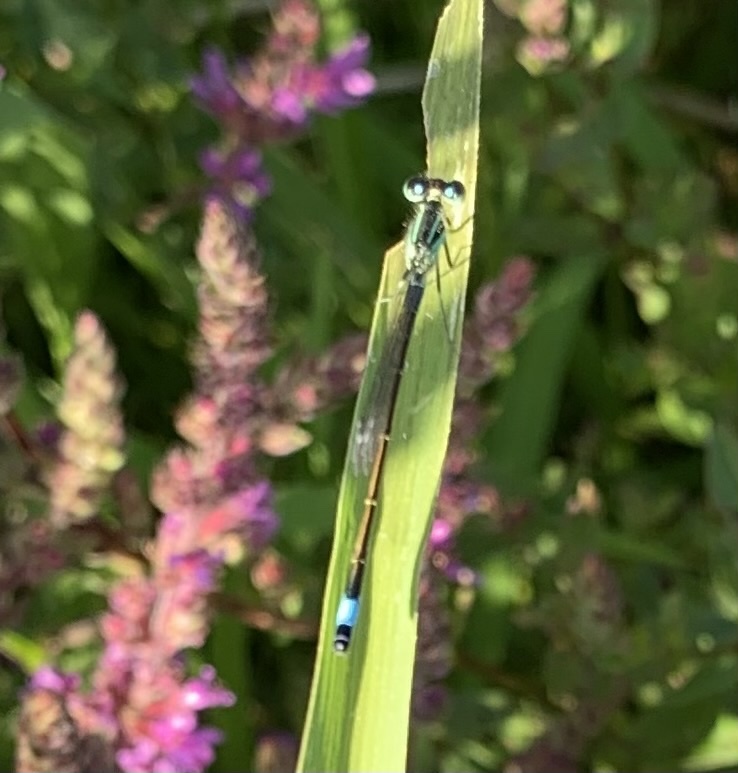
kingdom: Animalia
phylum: Arthropoda
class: Insecta
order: Odonata
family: Coenagrionidae
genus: Ischnura
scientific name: Ischnura elegans
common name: Blue-tailed damselfly
